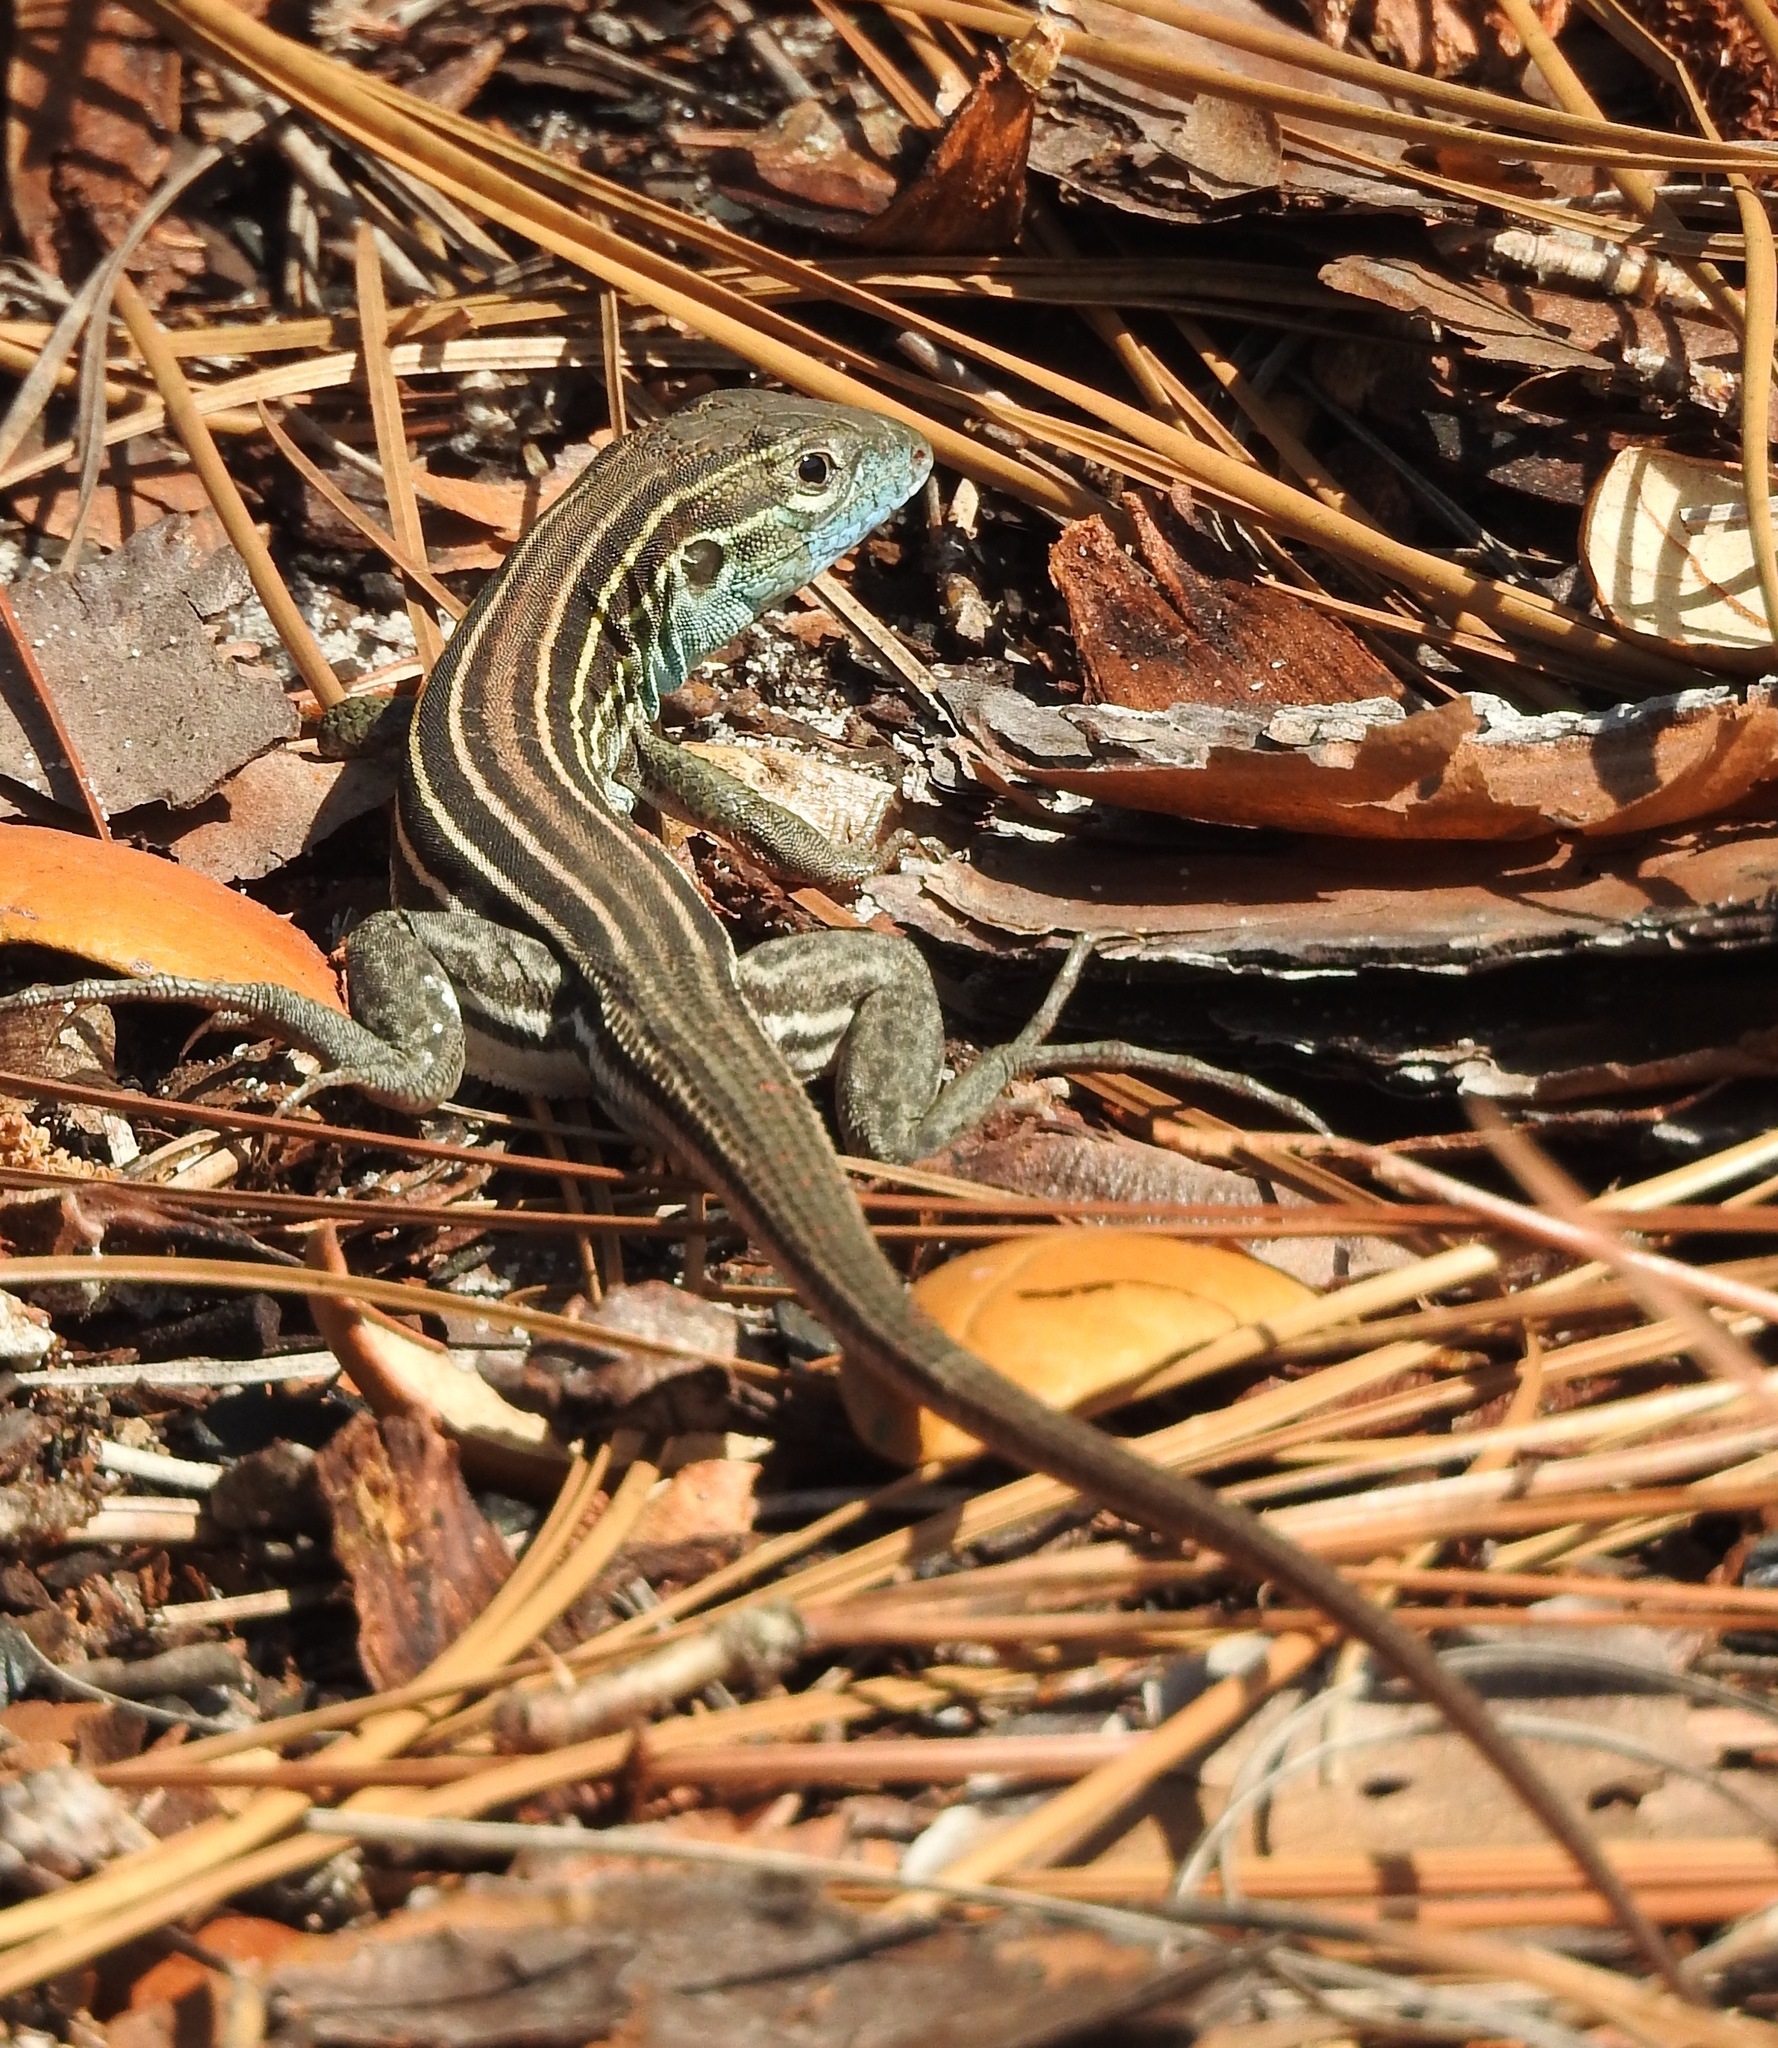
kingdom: Animalia
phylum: Chordata
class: Squamata
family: Teiidae
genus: Aspidoscelis
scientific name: Aspidoscelis sexlineatus
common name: Six-lined racerunner
